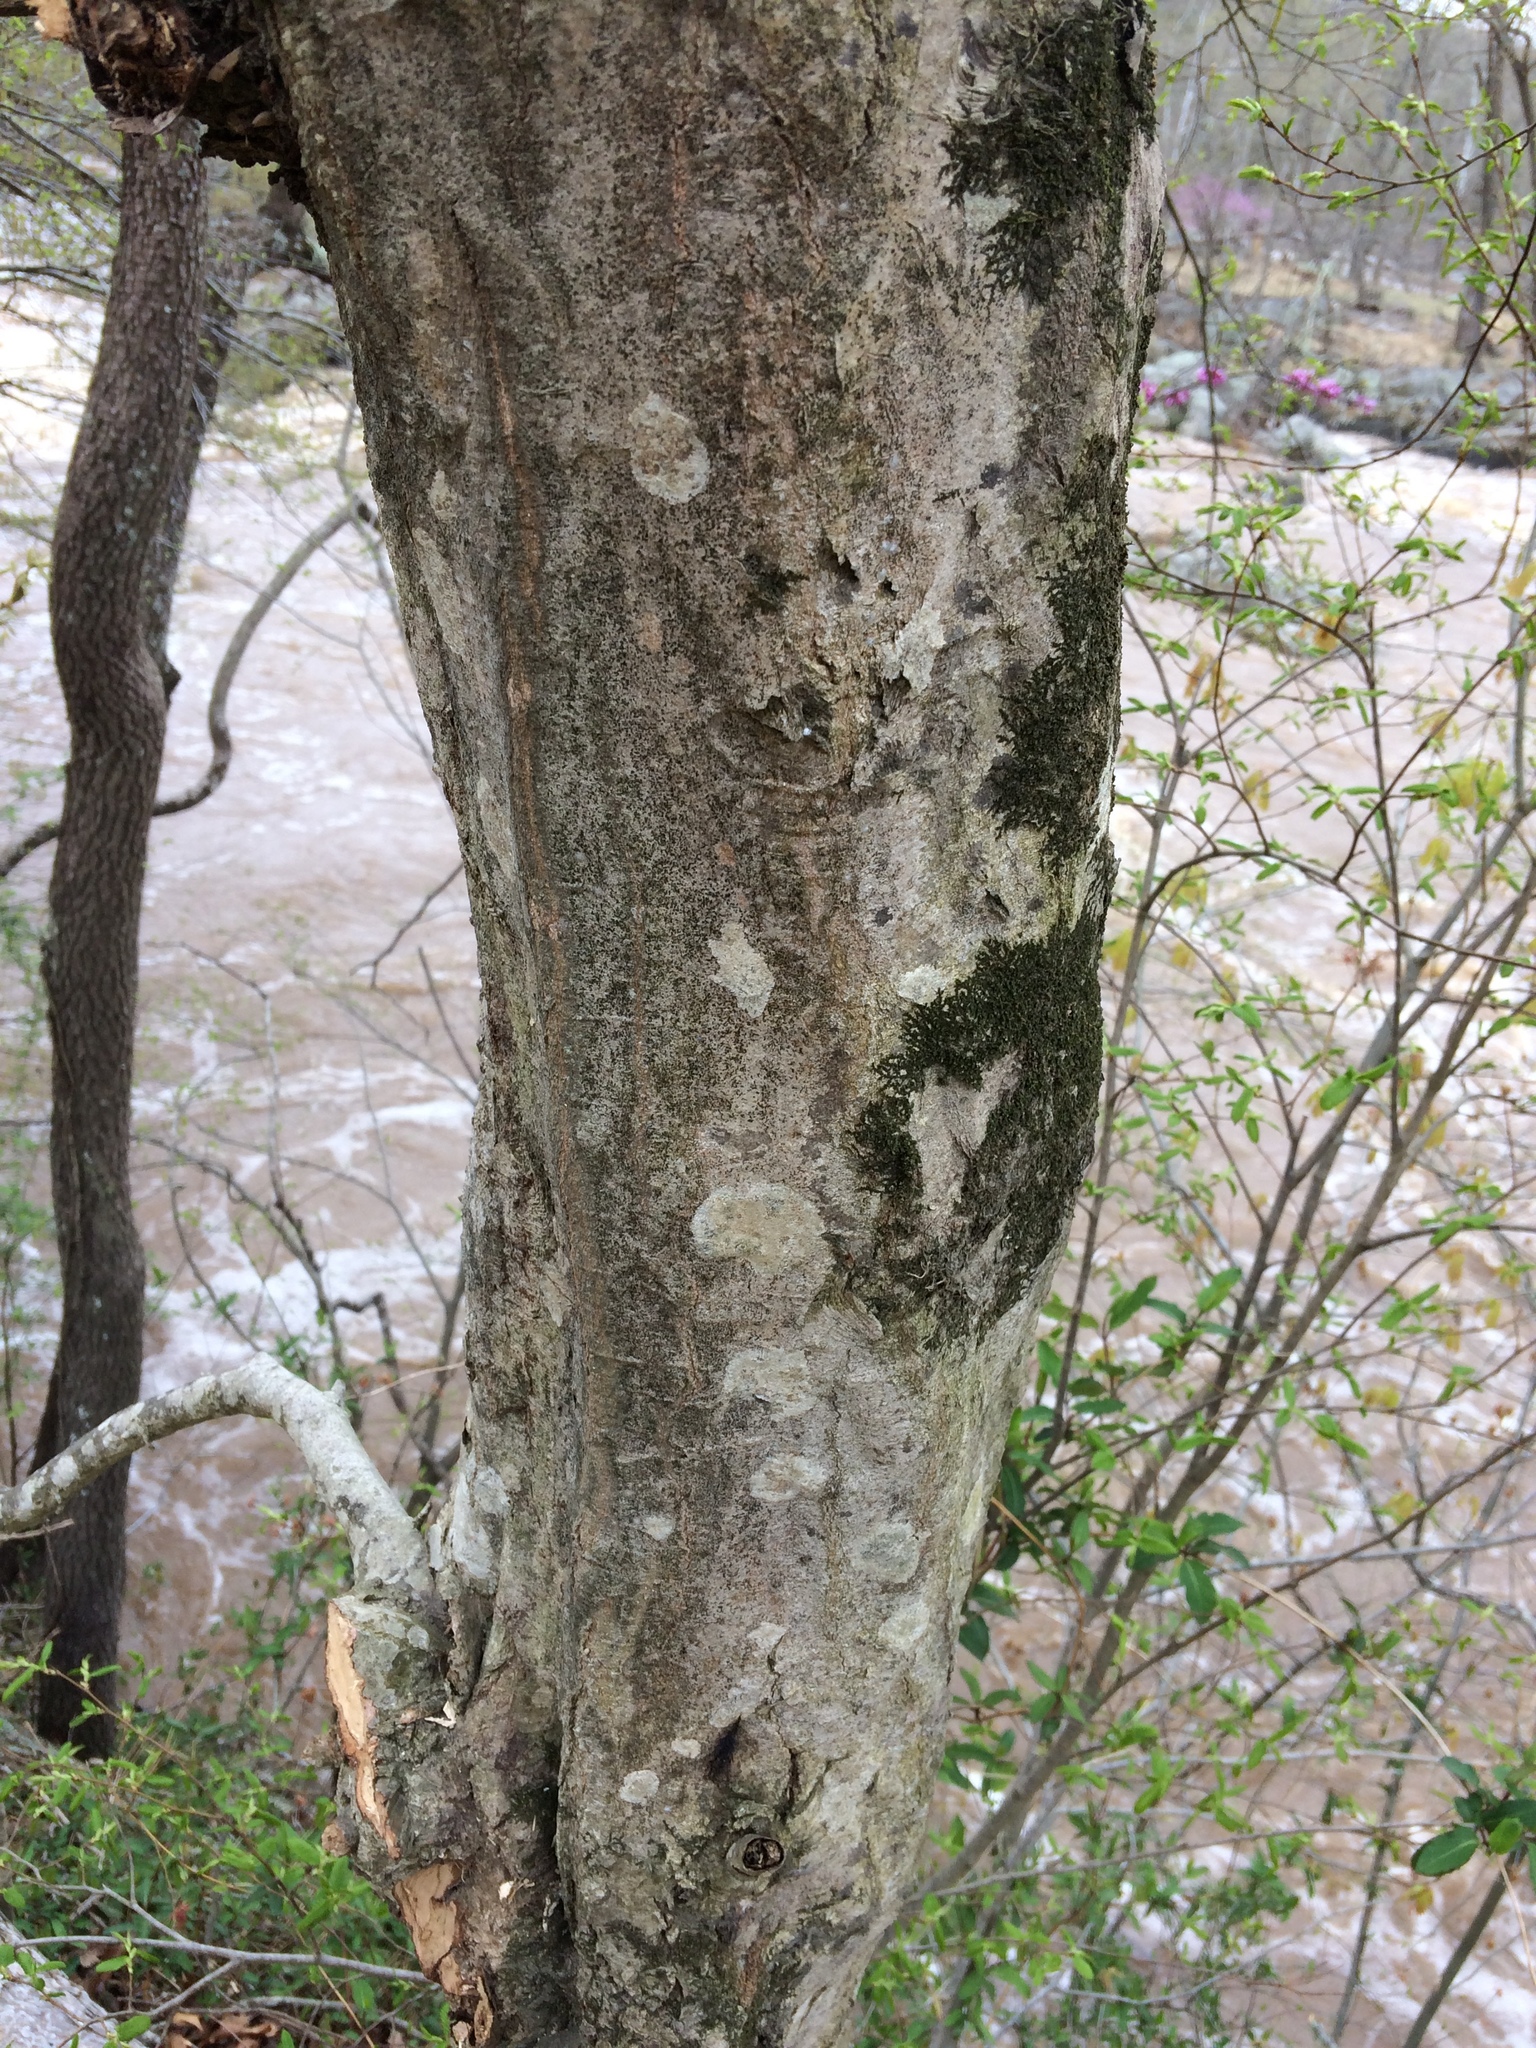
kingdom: Plantae
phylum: Tracheophyta
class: Magnoliopsida
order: Fagales
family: Betulaceae
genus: Carpinus
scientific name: Carpinus caroliniana
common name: American hornbeam
